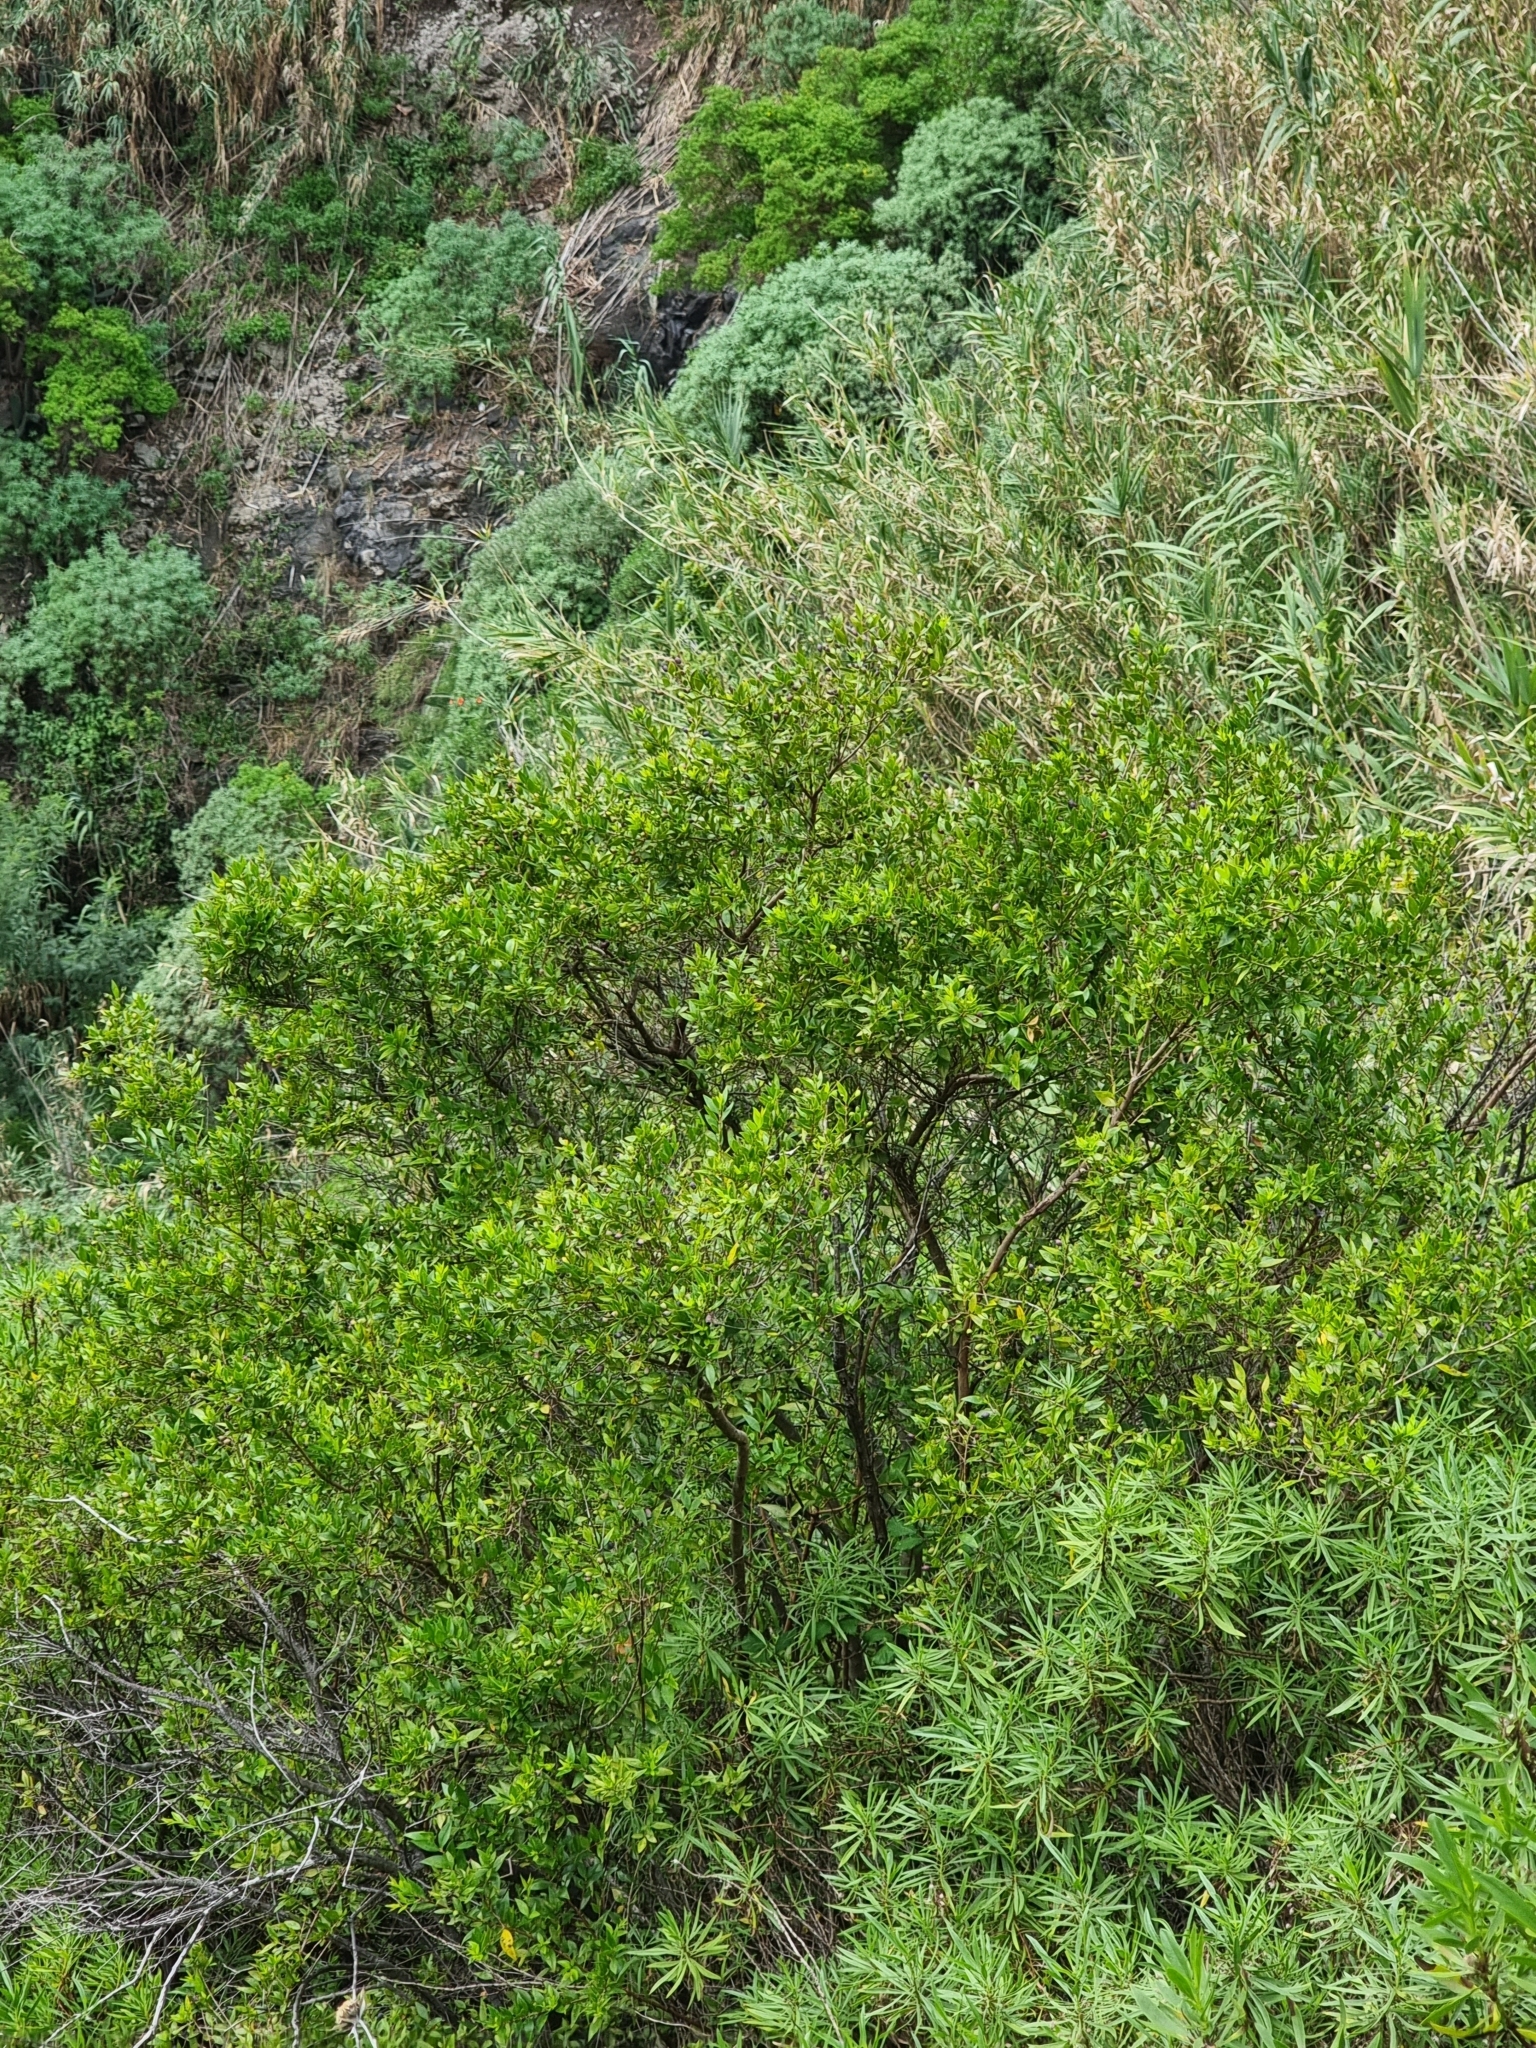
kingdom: Plantae
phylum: Tracheophyta
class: Magnoliopsida
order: Myrtales
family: Myrtaceae
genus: Myrtus
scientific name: Myrtus communis
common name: Myrtle
